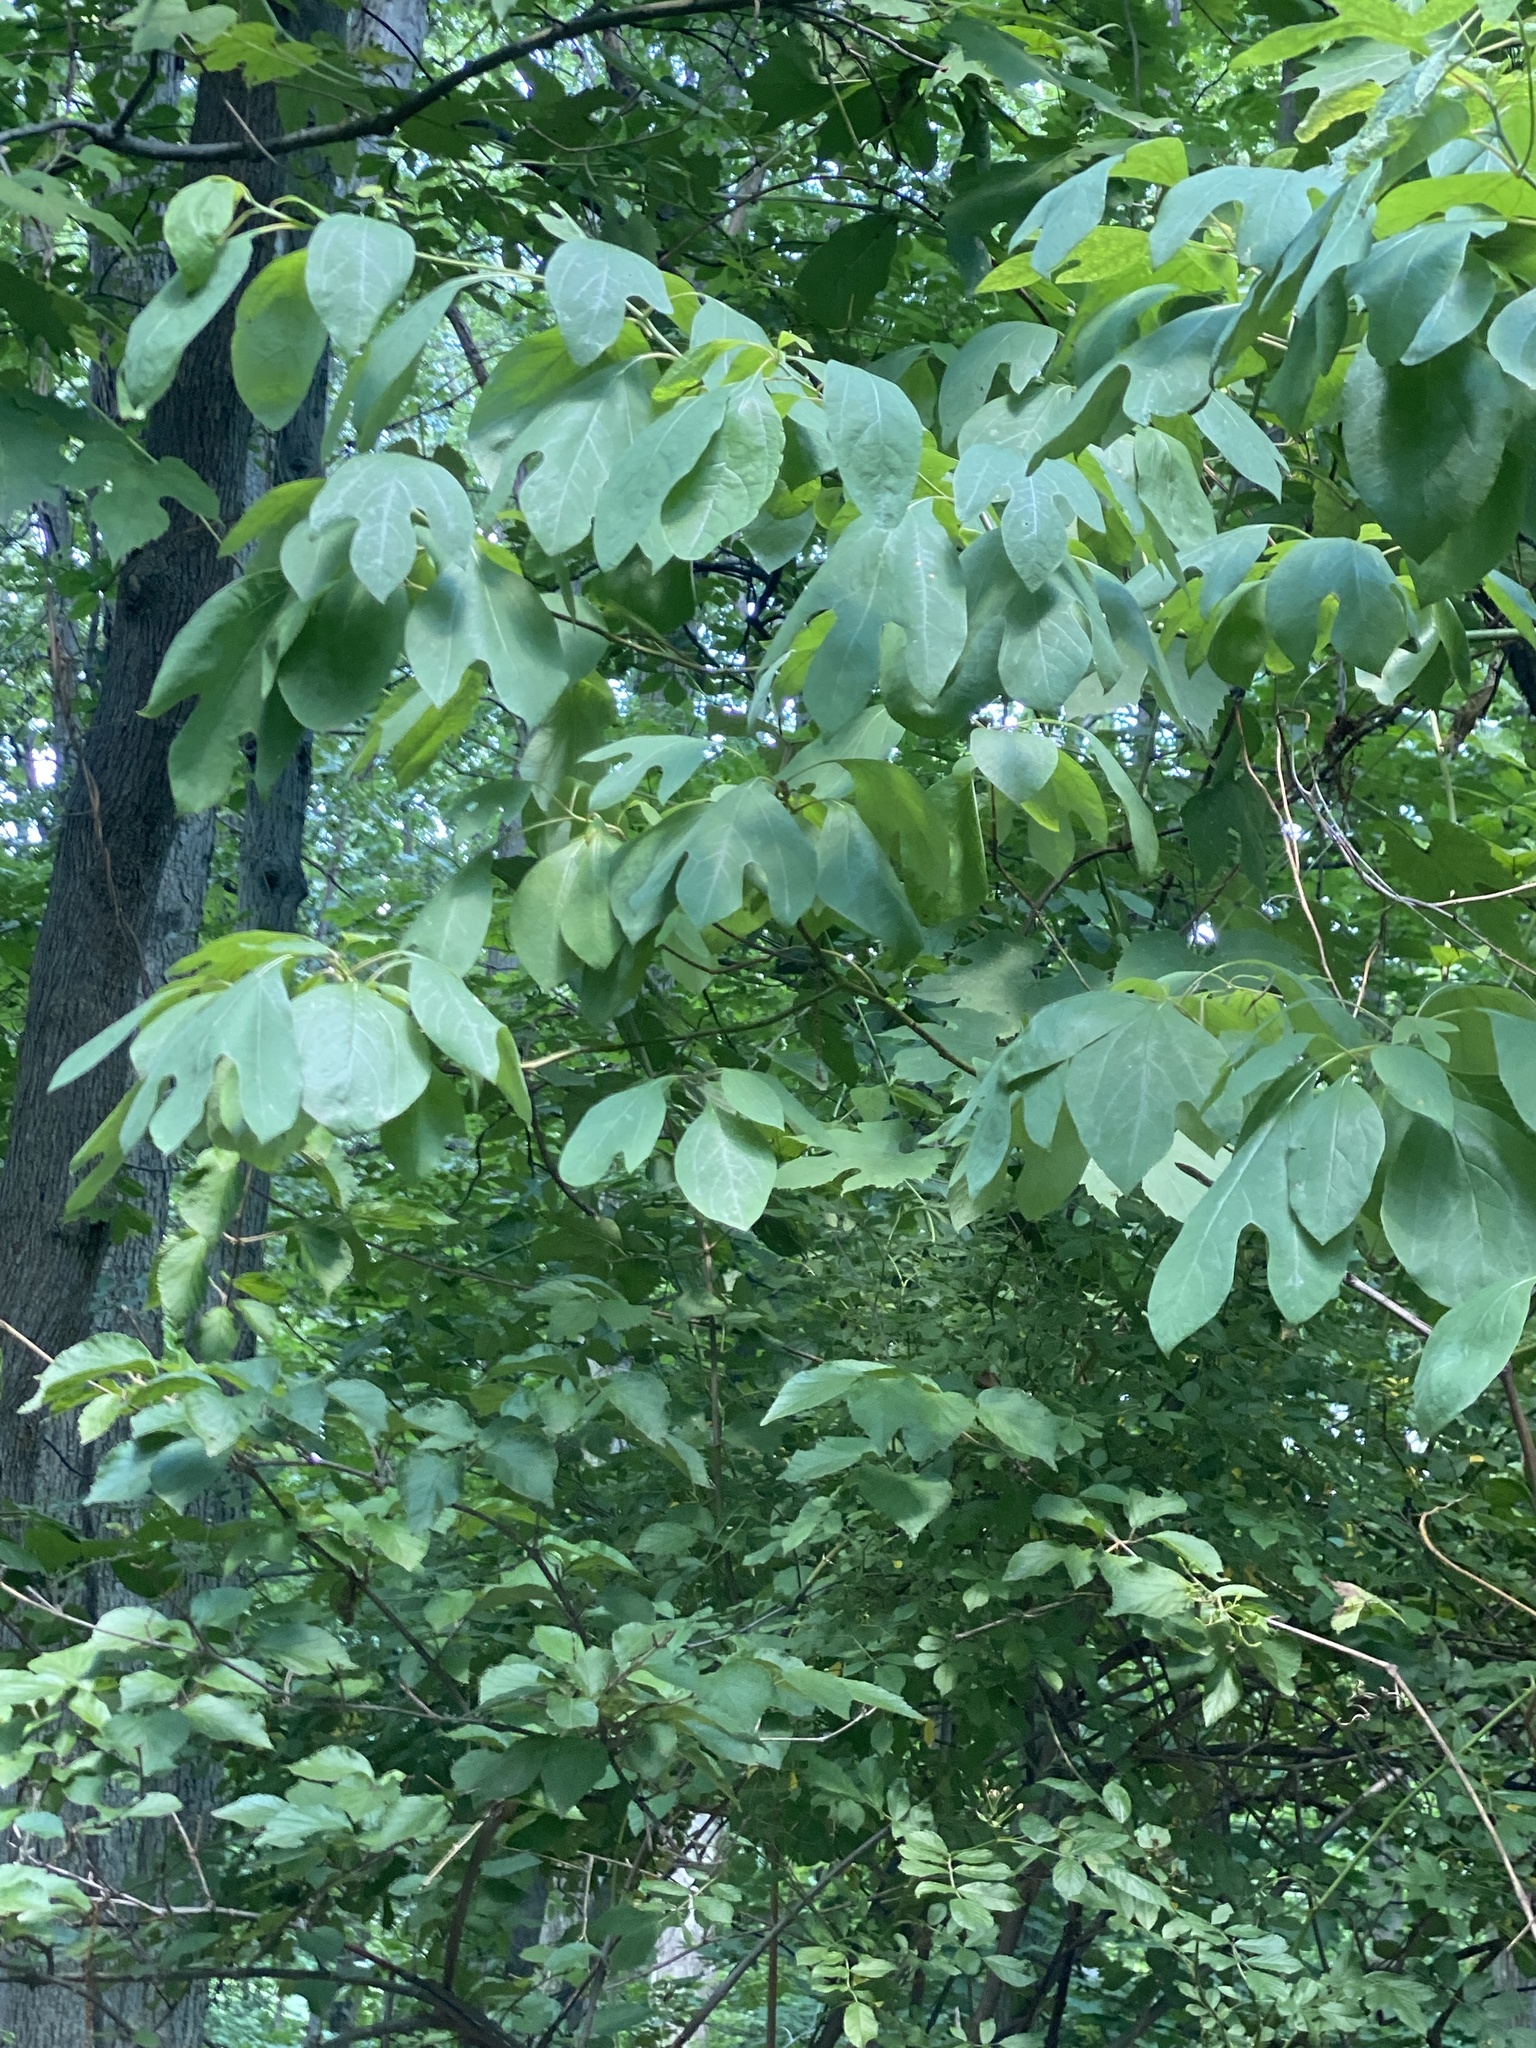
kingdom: Plantae
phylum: Tracheophyta
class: Magnoliopsida
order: Laurales
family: Lauraceae
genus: Sassafras
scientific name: Sassafras albidum
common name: Sassafras
